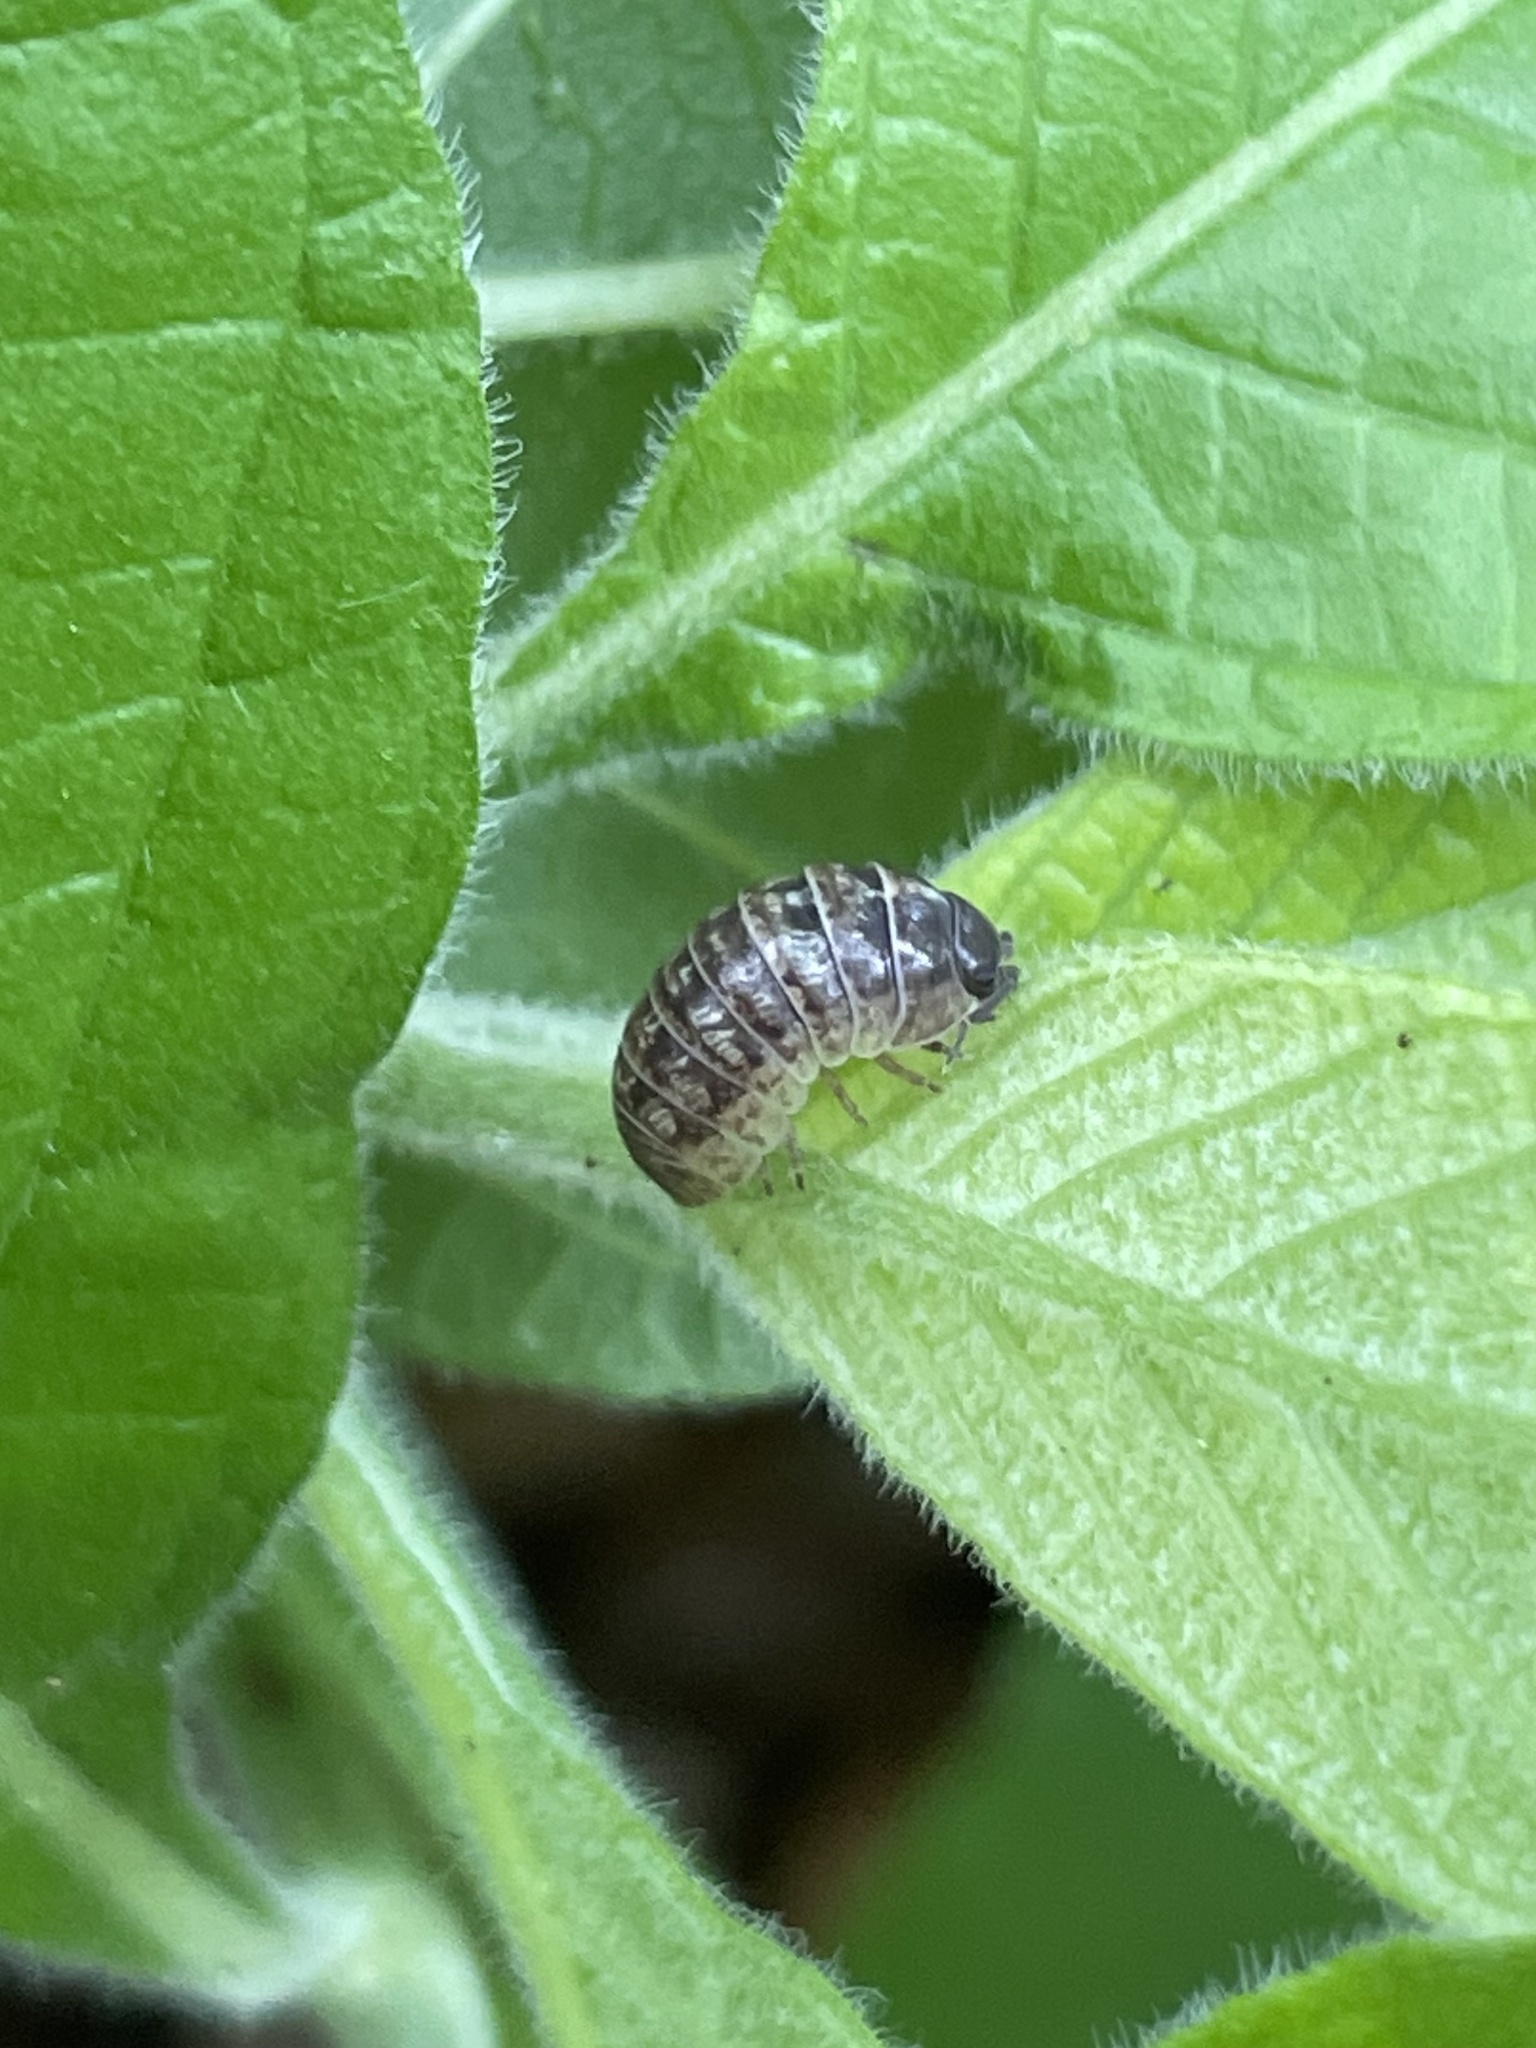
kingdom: Animalia
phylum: Arthropoda
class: Malacostraca
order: Isopoda
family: Armadillidiidae
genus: Armadillidium
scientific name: Armadillidium vulgare
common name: Common pill woodlouse
